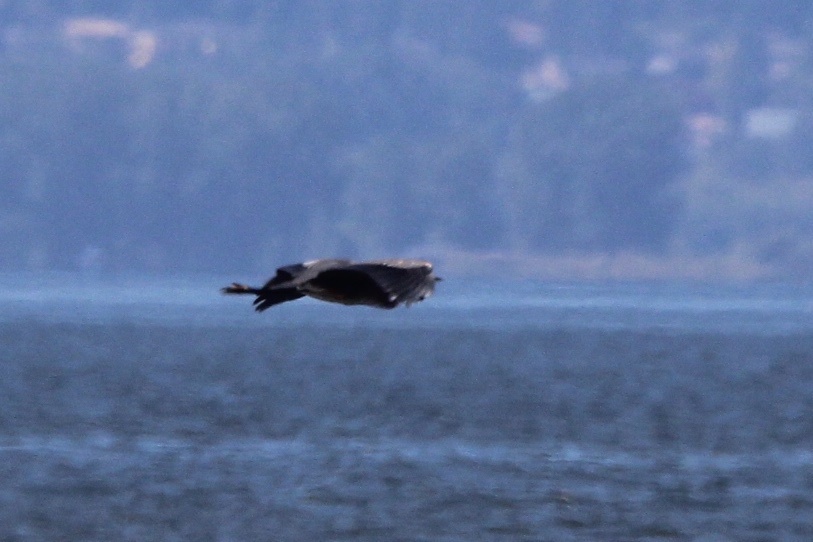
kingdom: Animalia
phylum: Chordata
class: Aves
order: Pelecaniformes
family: Ardeidae
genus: Ardea
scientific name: Ardea herodias
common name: Great blue heron
